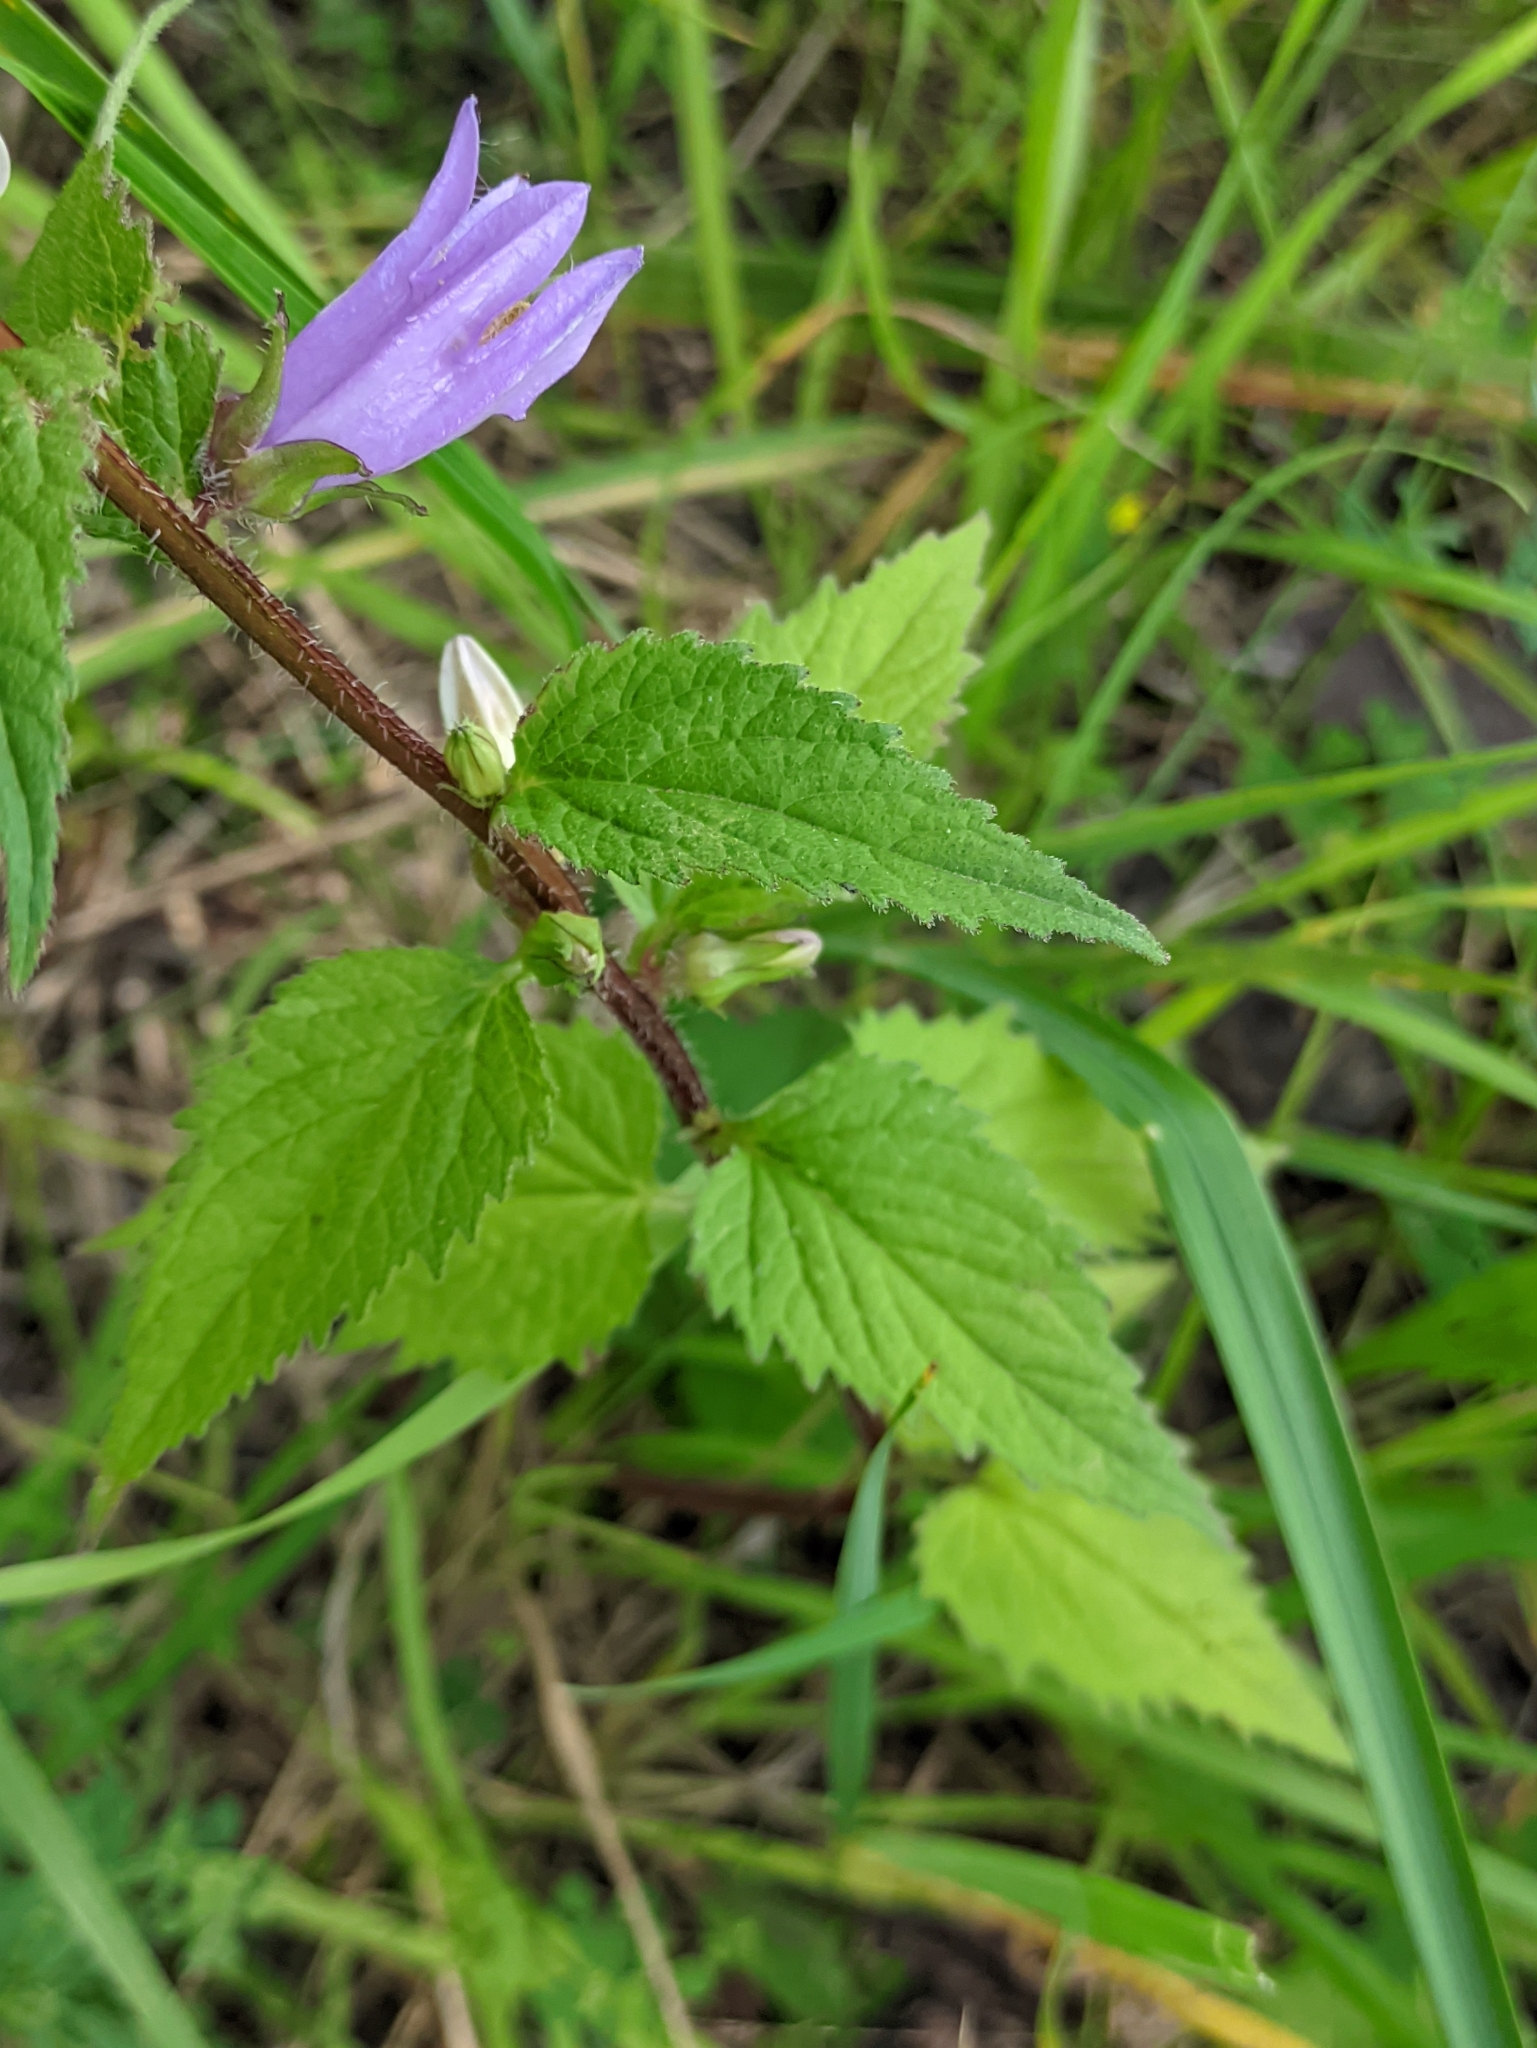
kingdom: Plantae
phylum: Tracheophyta
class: Magnoliopsida
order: Asterales
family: Campanulaceae
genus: Campanula
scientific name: Campanula trachelium
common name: Nettle-leaved bellflower
